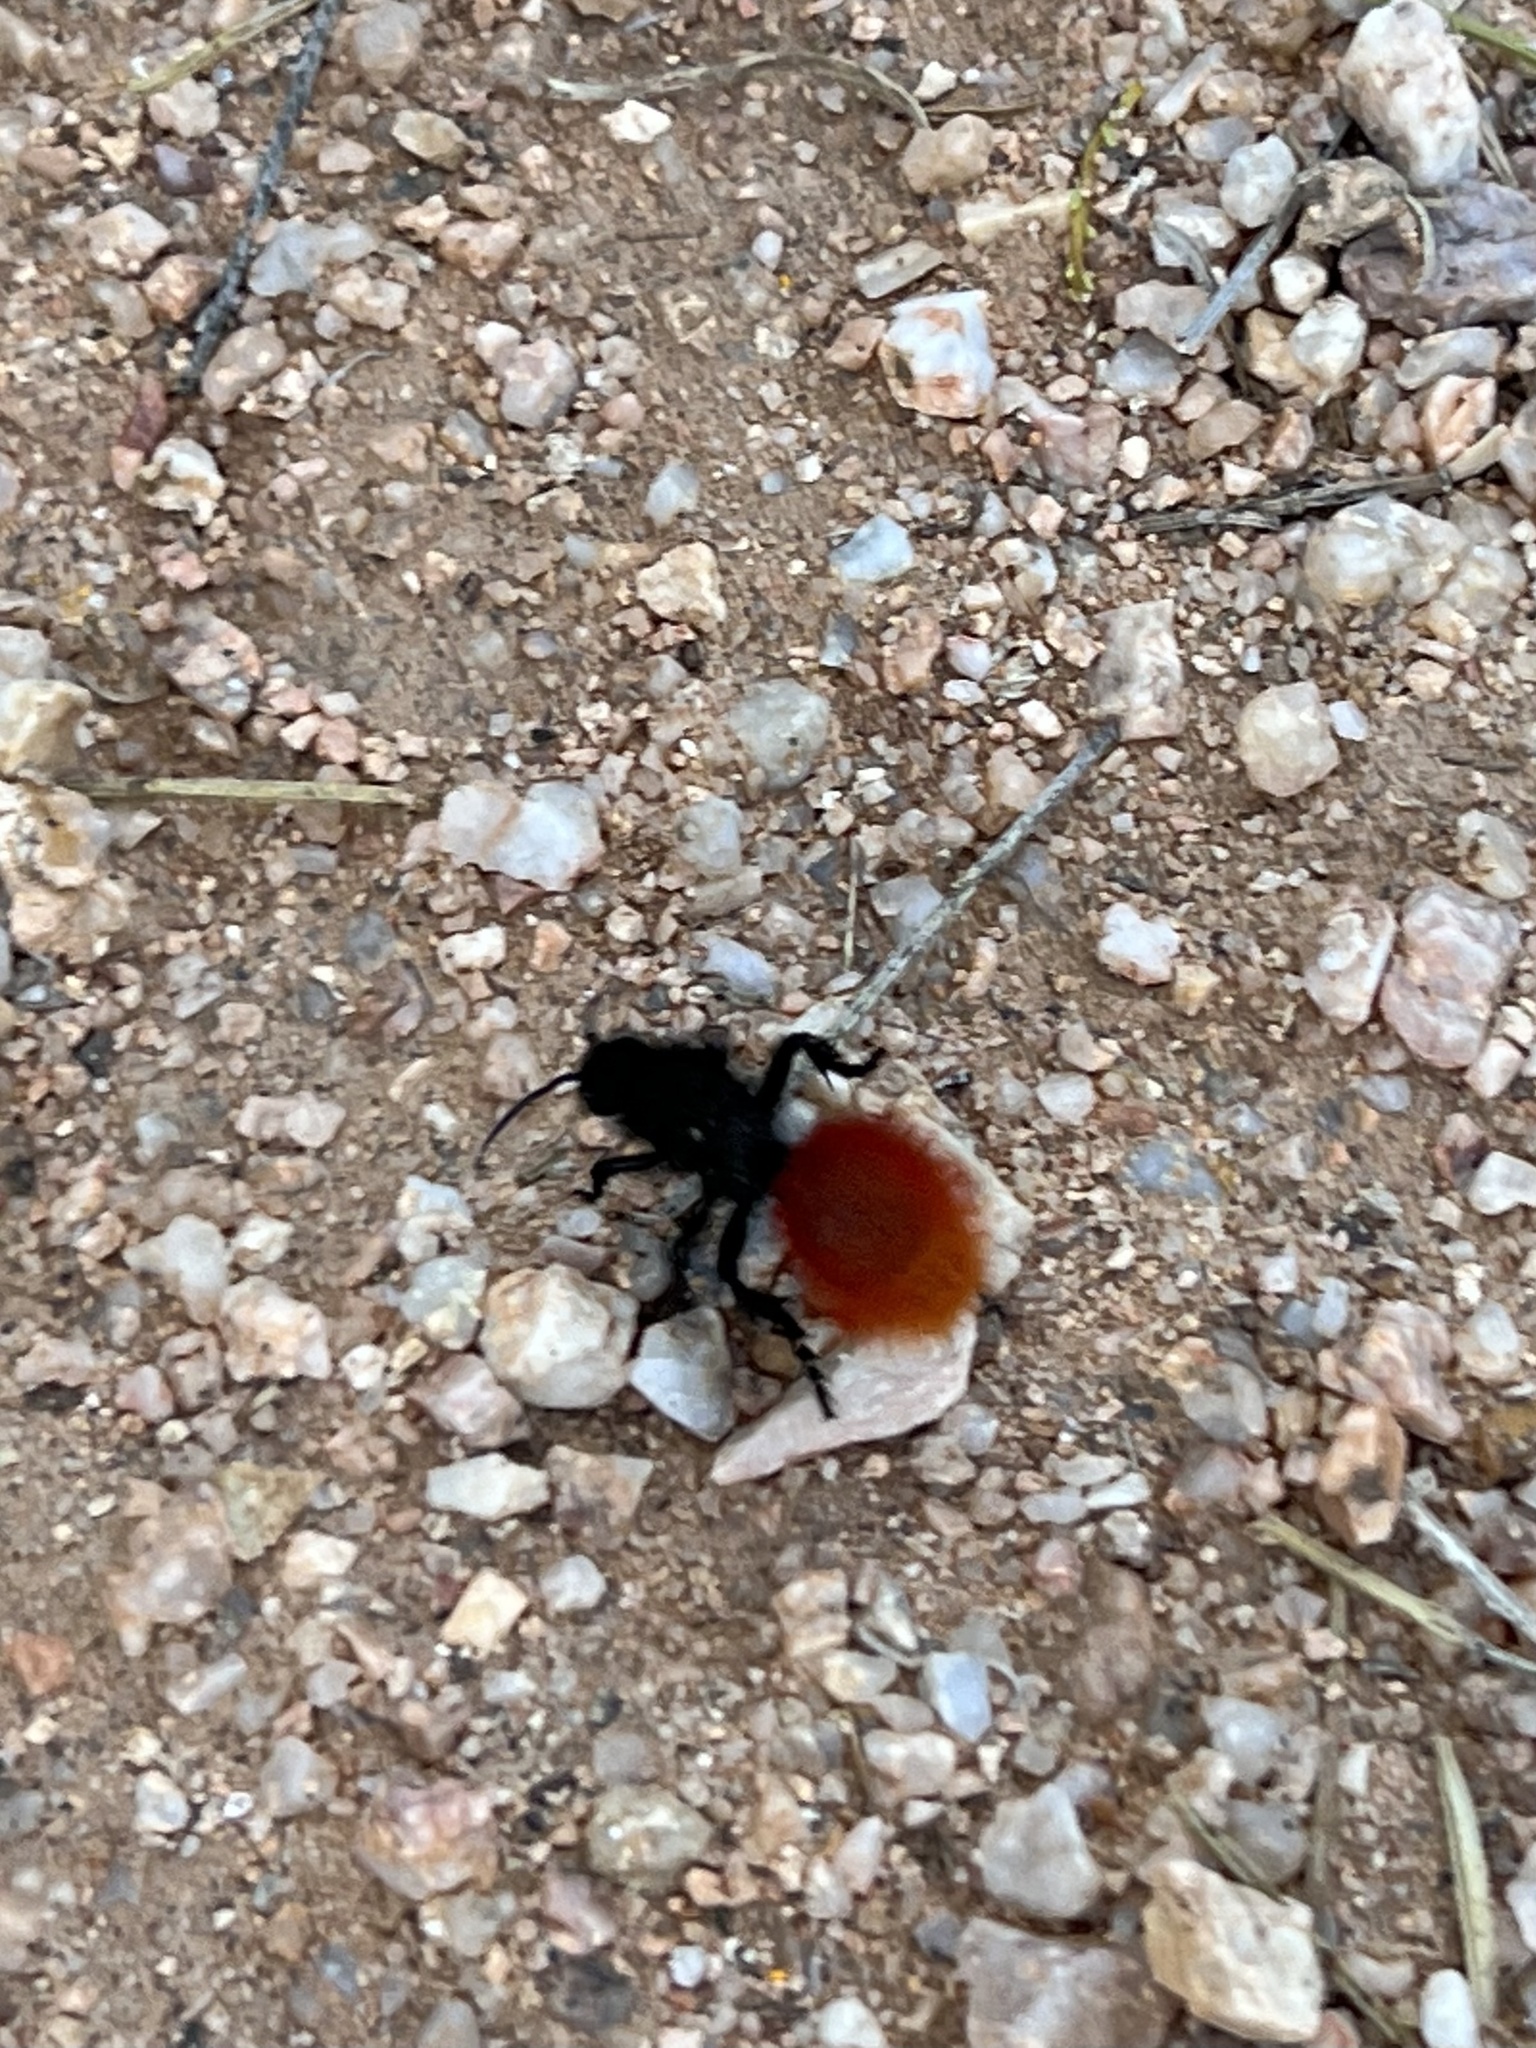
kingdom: Animalia
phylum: Arthropoda
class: Insecta
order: Hymenoptera
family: Mutillidae
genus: Dasymutilla
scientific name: Dasymutilla magnifica
